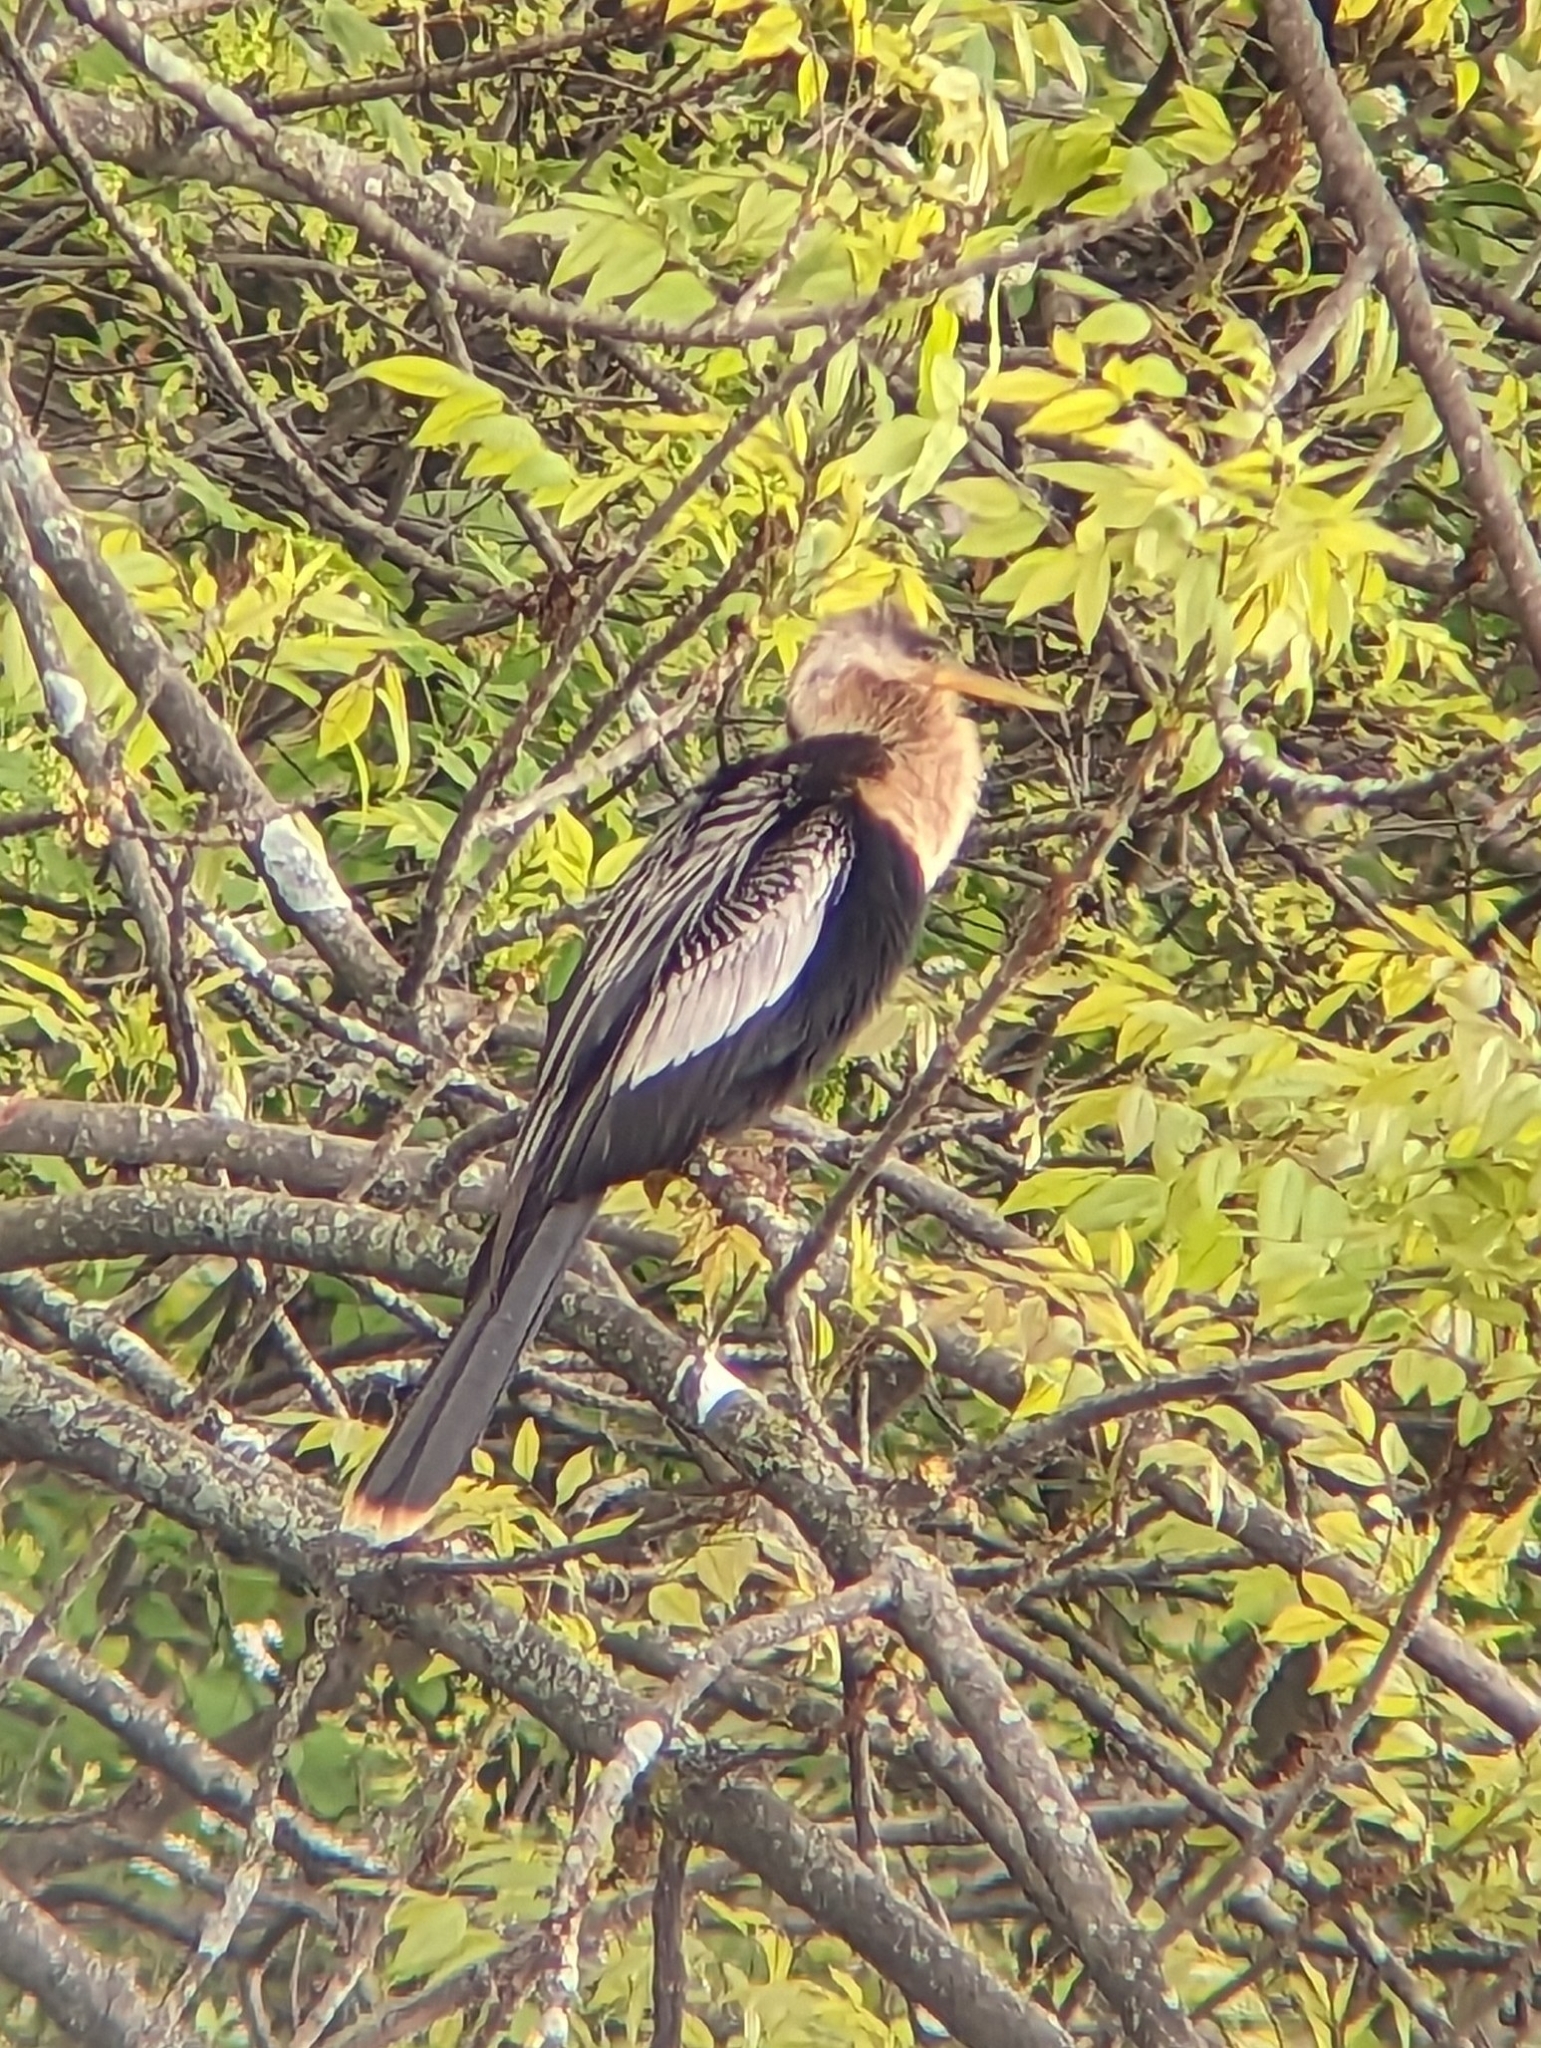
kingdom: Animalia
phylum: Chordata
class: Aves
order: Suliformes
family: Anhingidae
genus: Anhinga
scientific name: Anhinga anhinga
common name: Anhinga
